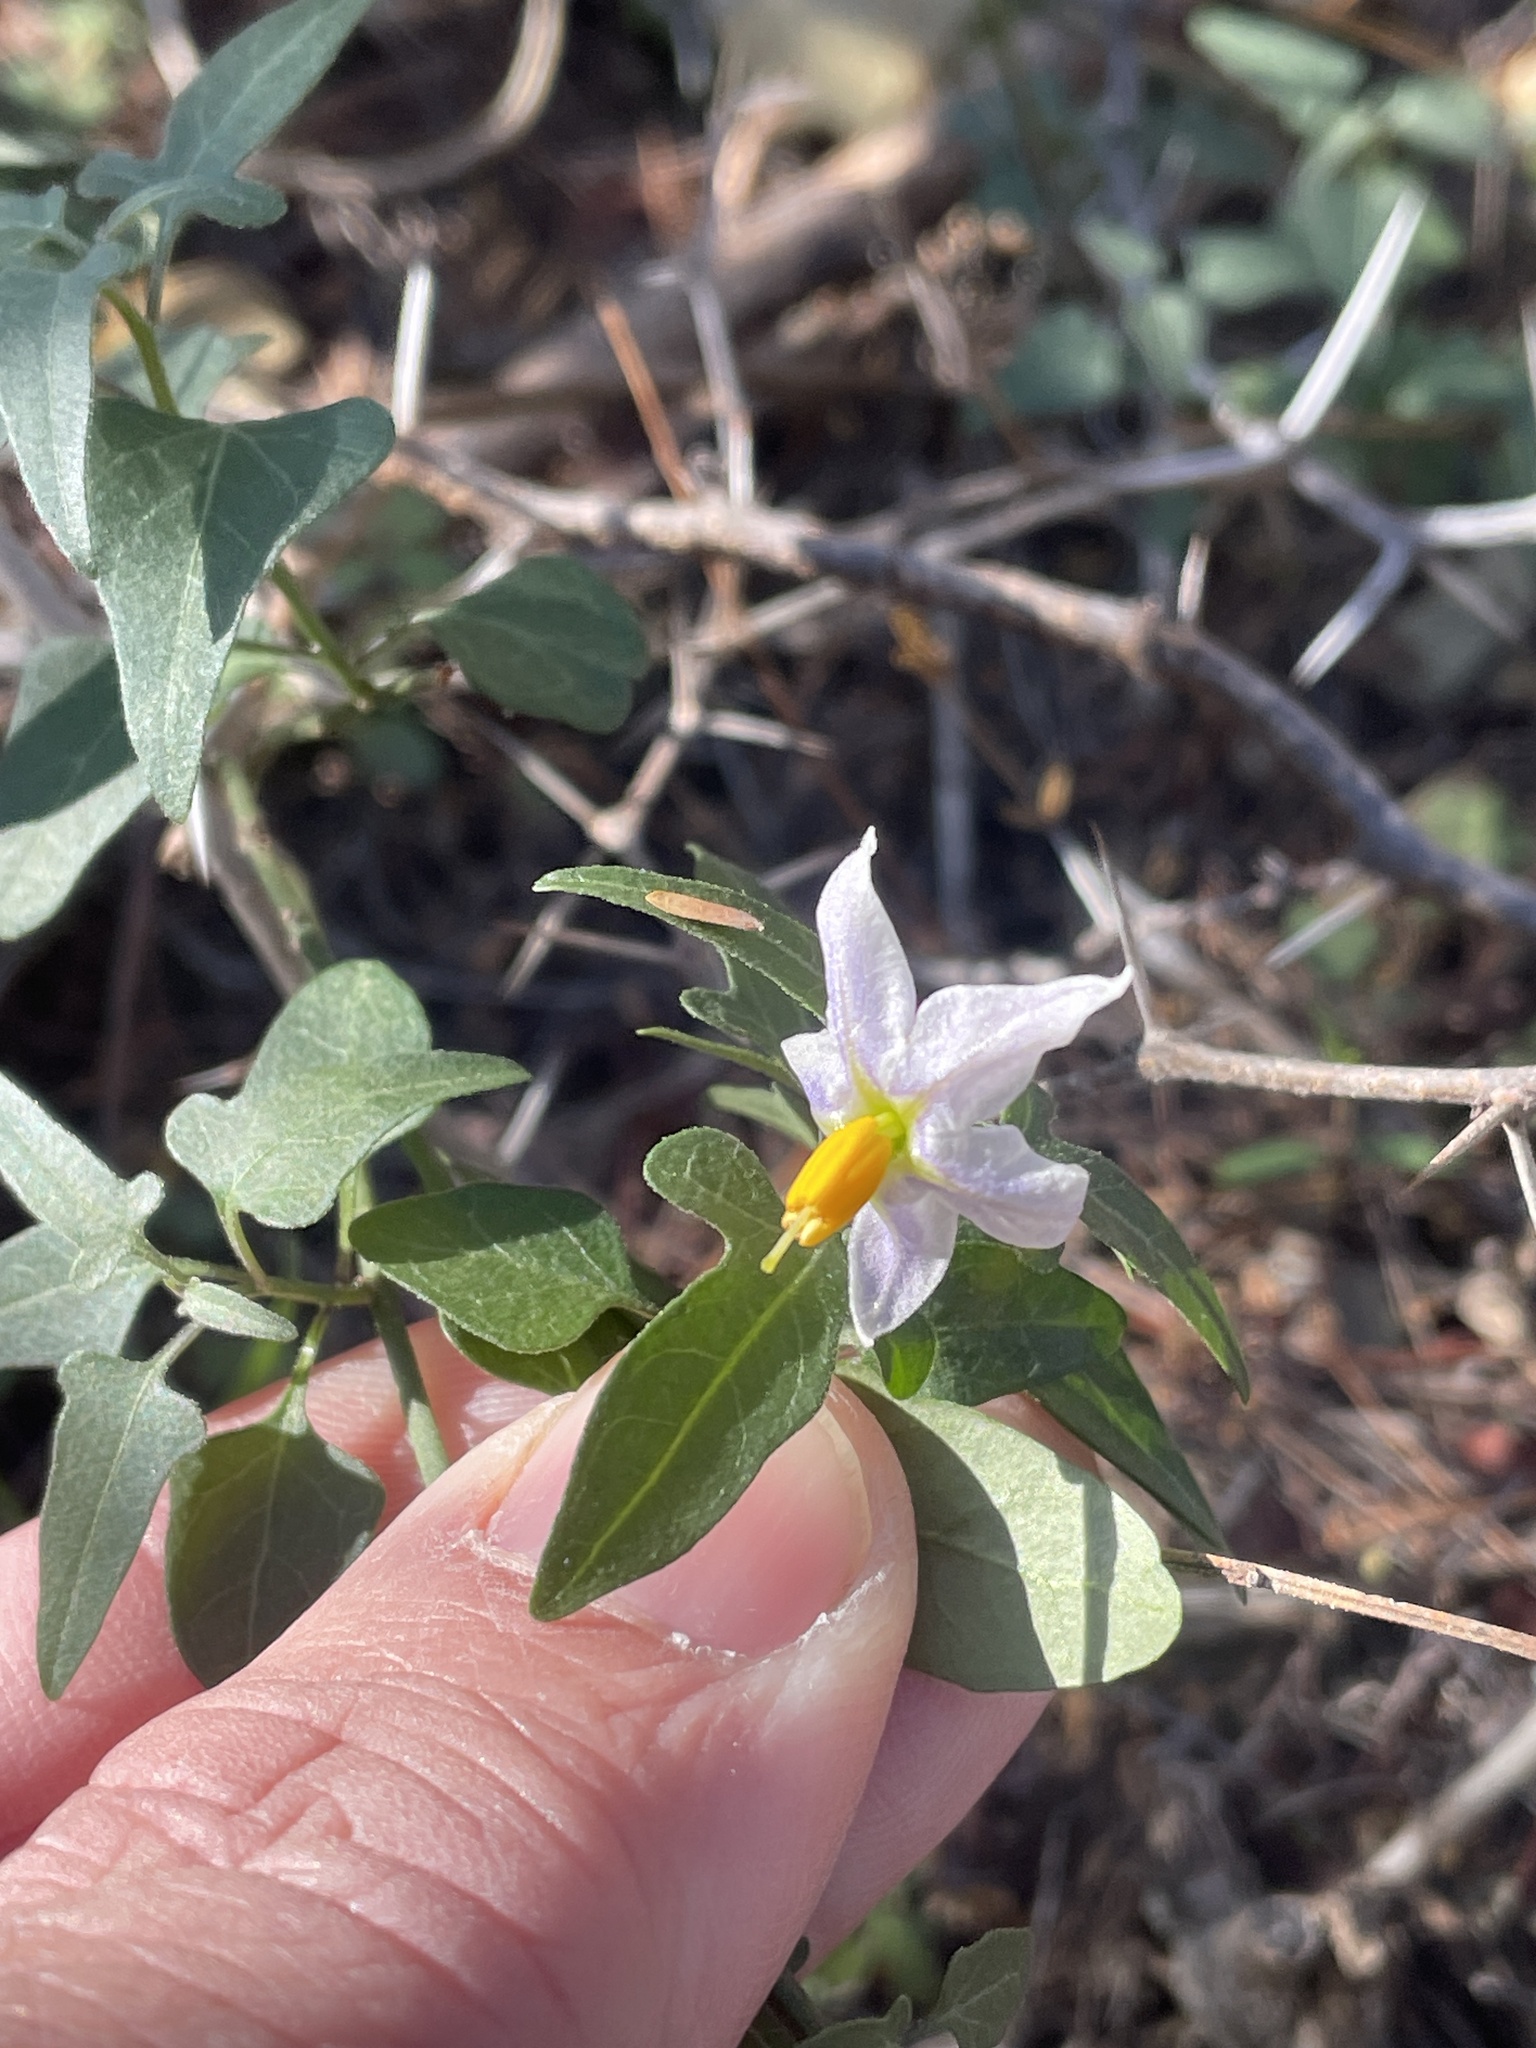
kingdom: Plantae
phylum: Tracheophyta
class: Magnoliopsida
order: Solanales
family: Solanaceae
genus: Solanum
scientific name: Solanum triquetrum
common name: Texas nightshade
